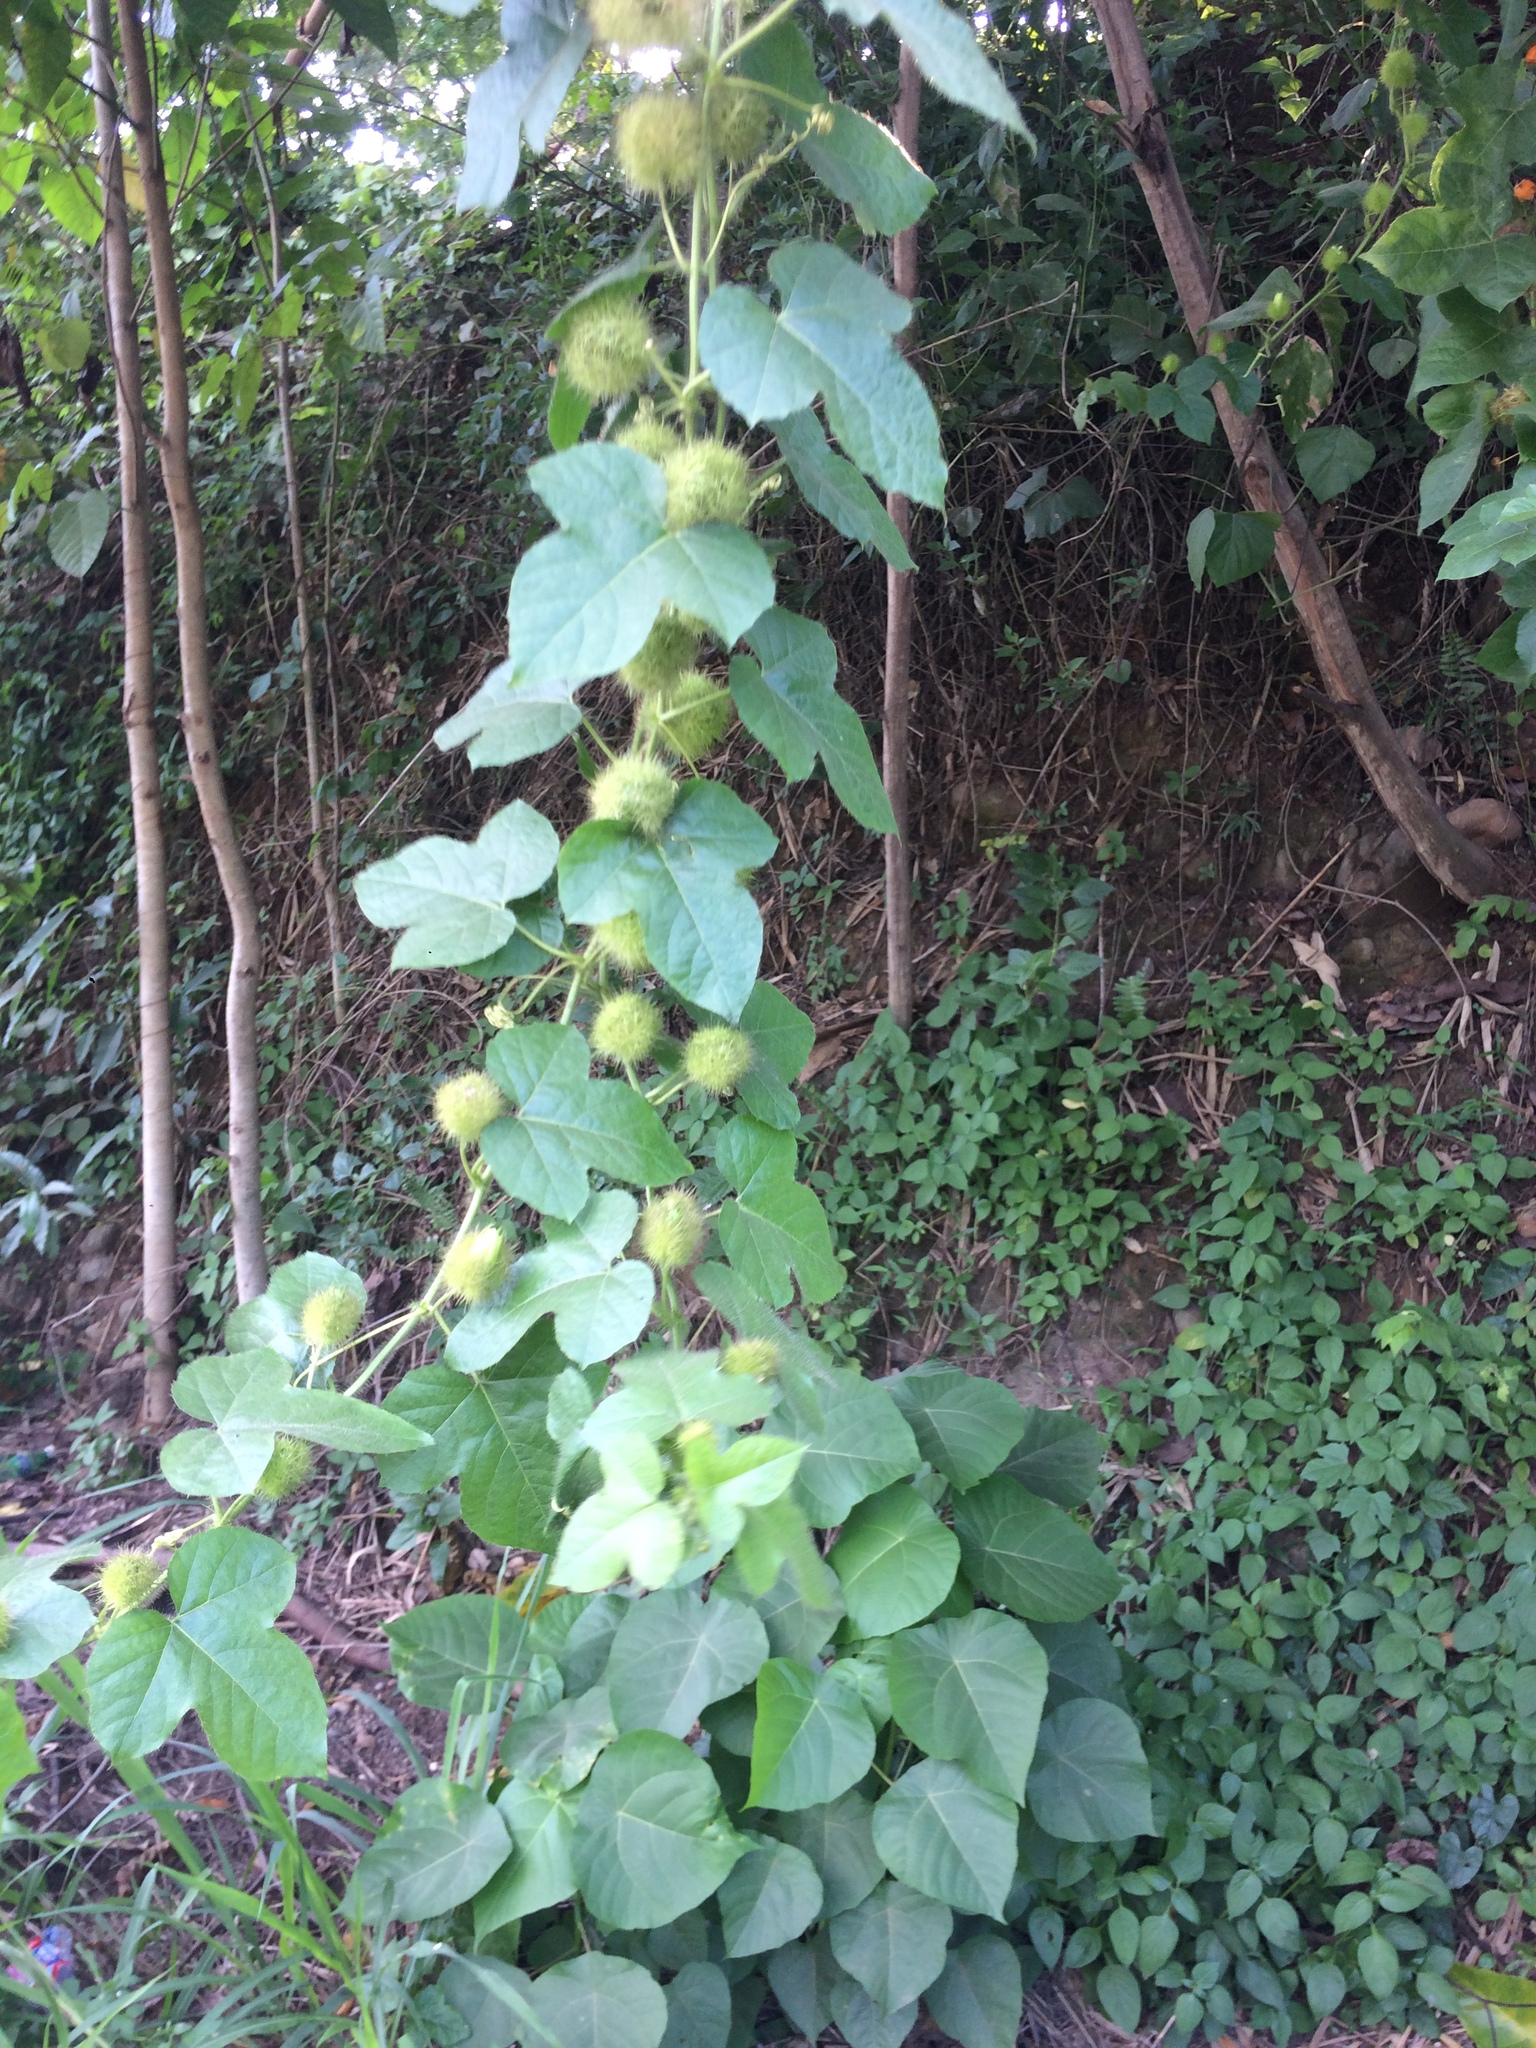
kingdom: Plantae
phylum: Tracheophyta
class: Magnoliopsida
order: Malpighiales
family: Passifloraceae
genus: Passiflora
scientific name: Passiflora vesicaria
